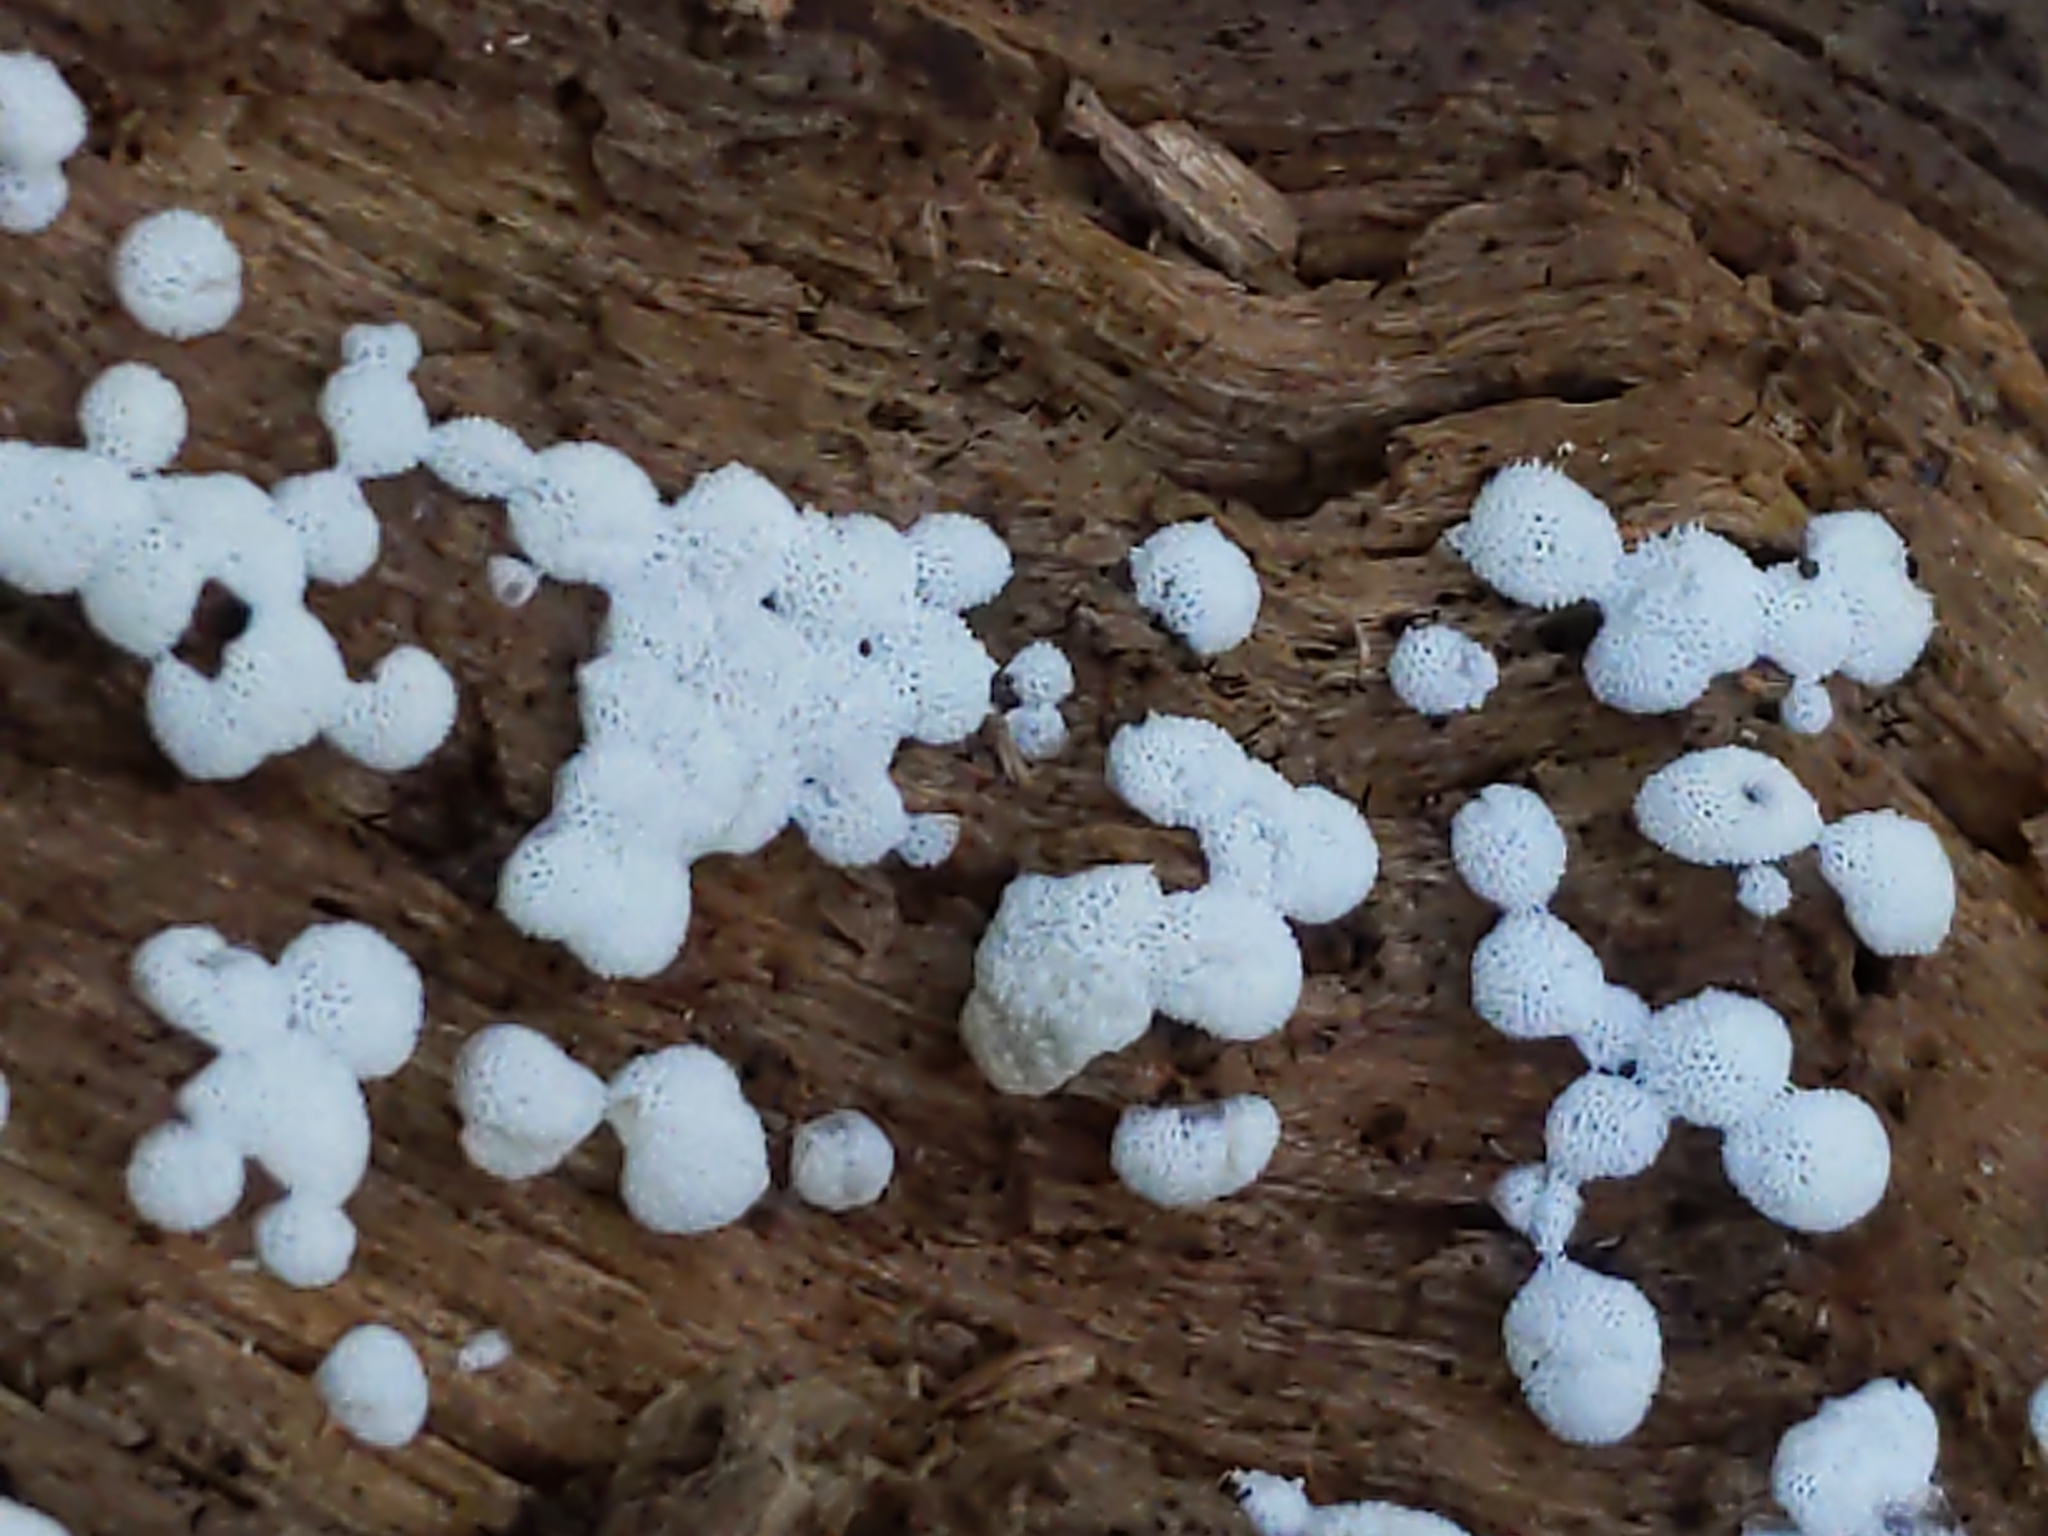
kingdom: Protozoa
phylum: Mycetozoa
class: Protosteliomycetes
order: Ceratiomyxales
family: Ceratiomyxaceae
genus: Ceratiomyxa
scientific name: Ceratiomyxa fruticulosa
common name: Honeycomb coral slime mold
